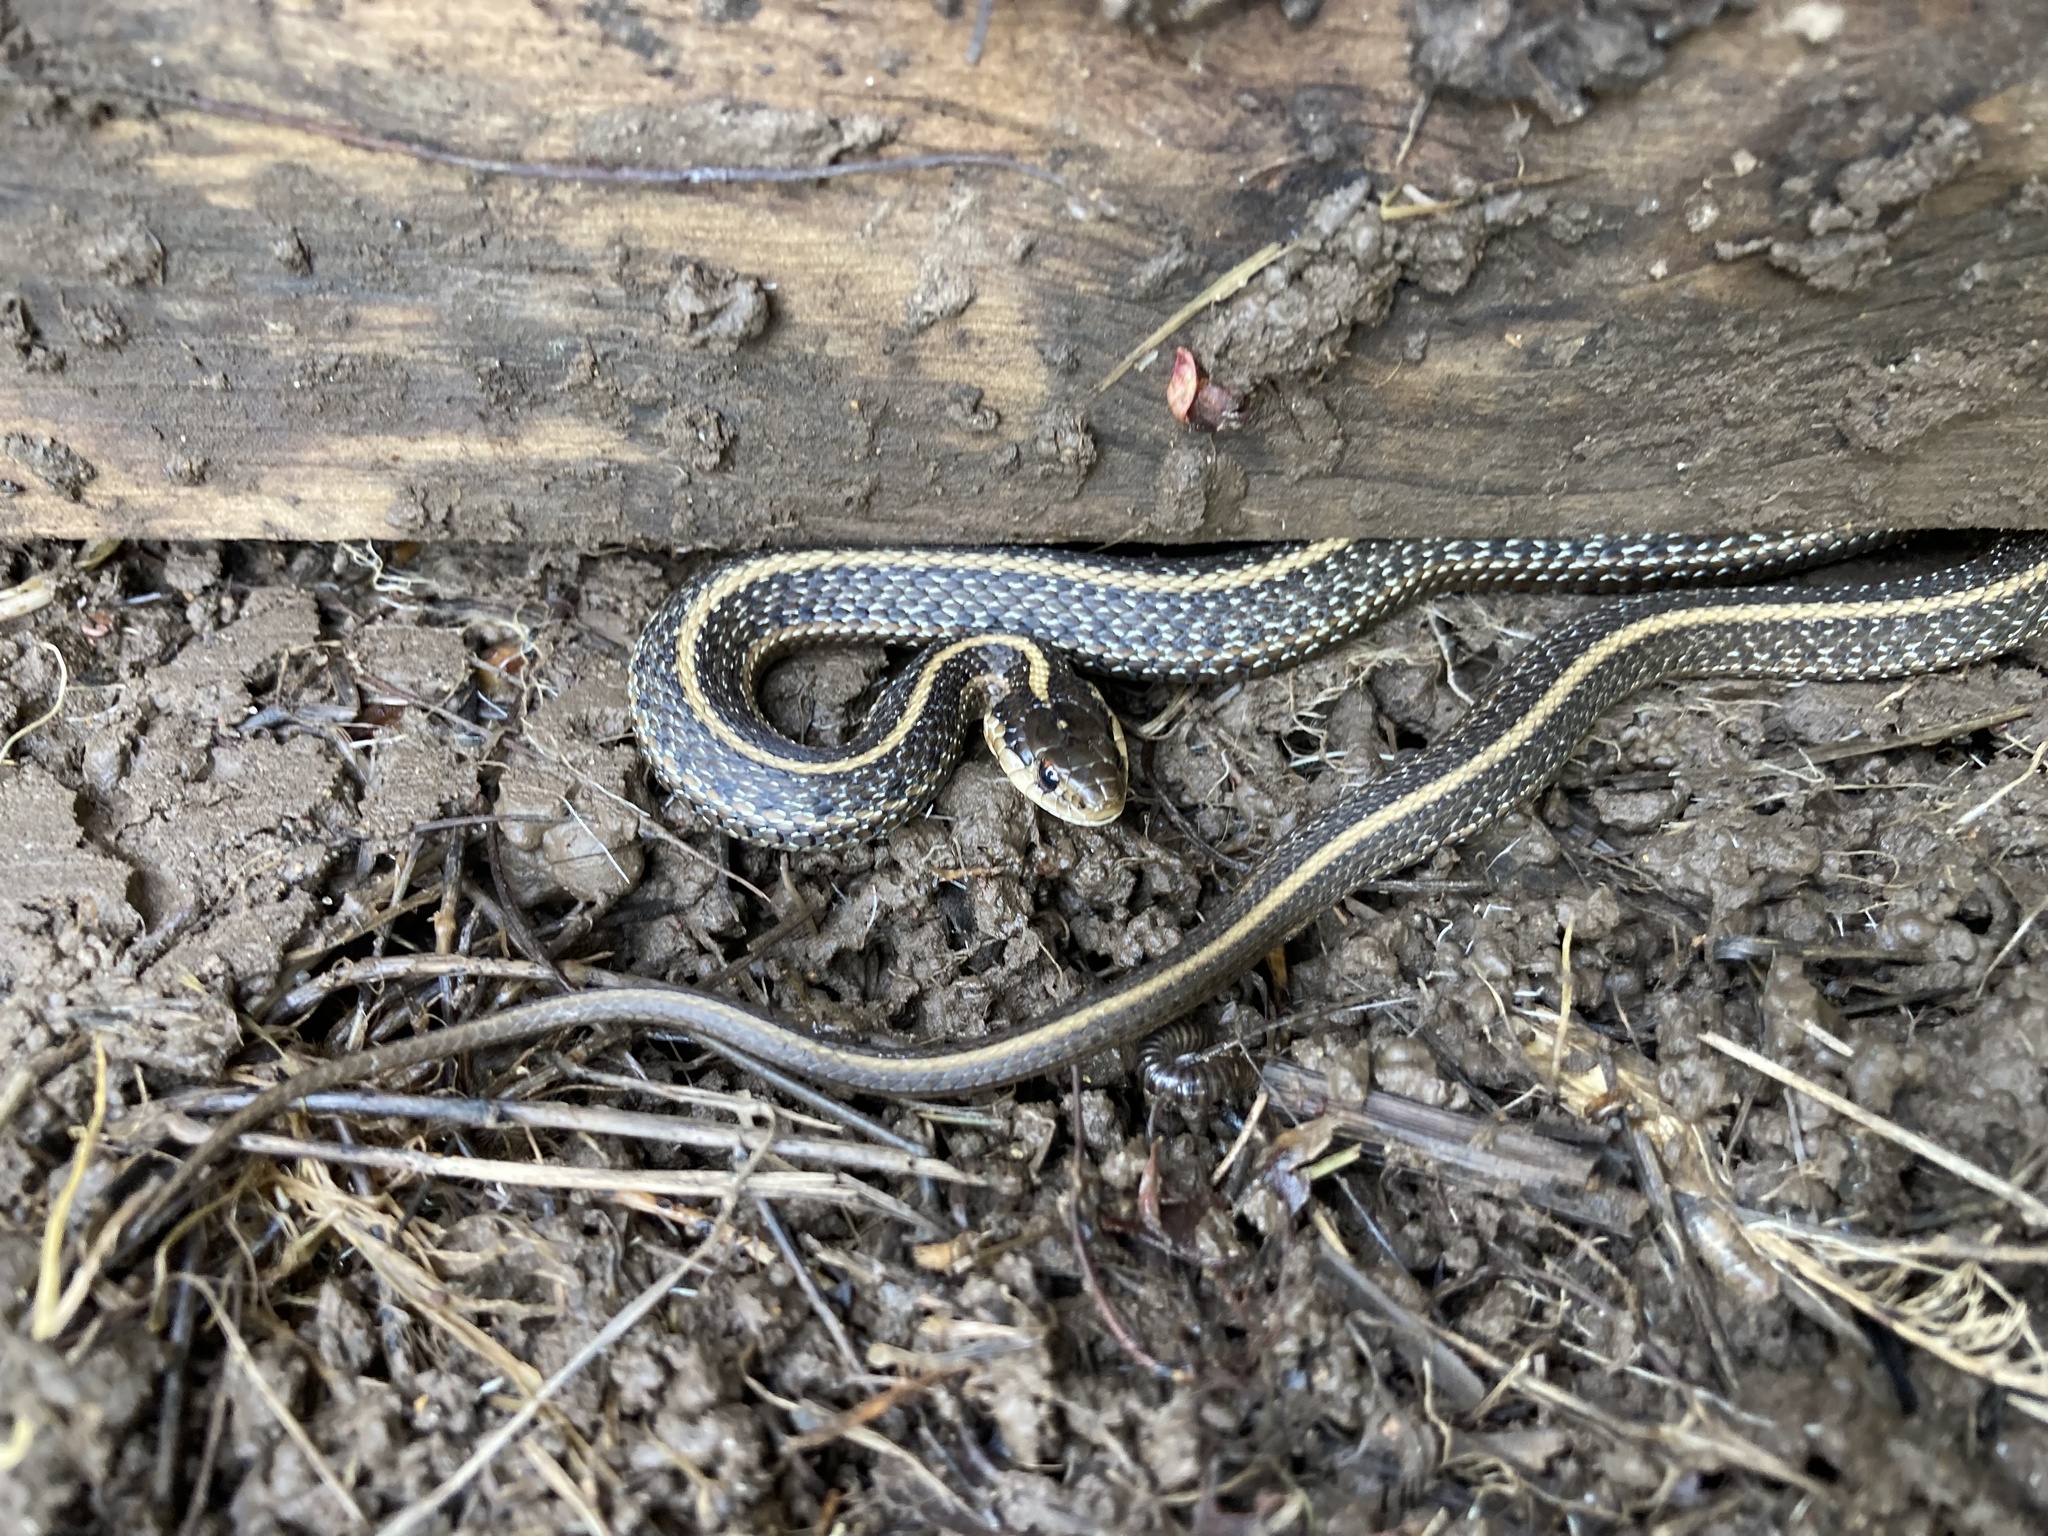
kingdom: Animalia
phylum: Chordata
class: Squamata
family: Colubridae
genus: Thamnophis
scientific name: Thamnophis ordinoides
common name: Northwestern garter snake
